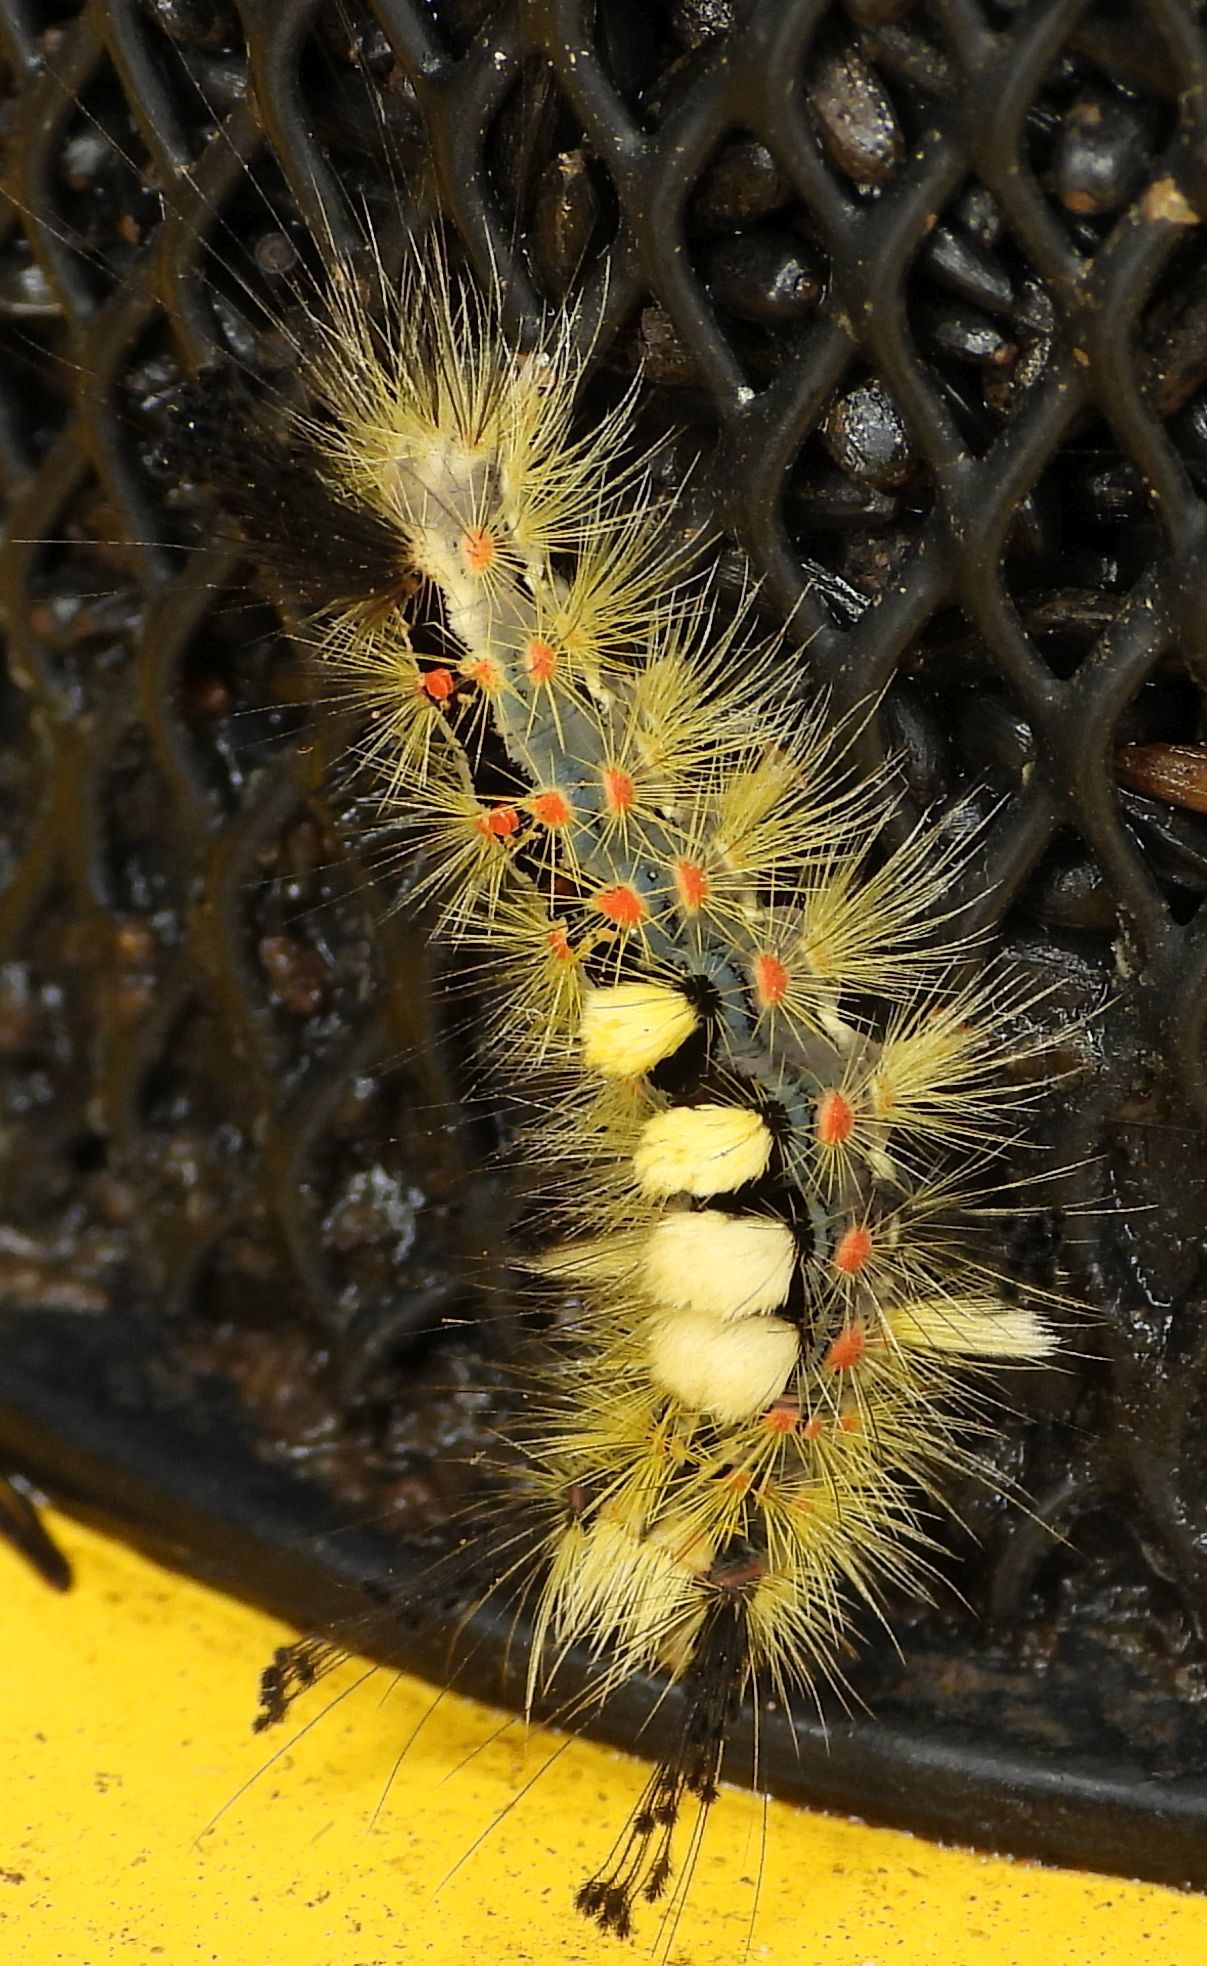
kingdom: Animalia
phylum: Arthropoda
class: Insecta
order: Lepidoptera
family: Erebidae
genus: Orgyia
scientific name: Orgyia antiqua
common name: Vapourer
